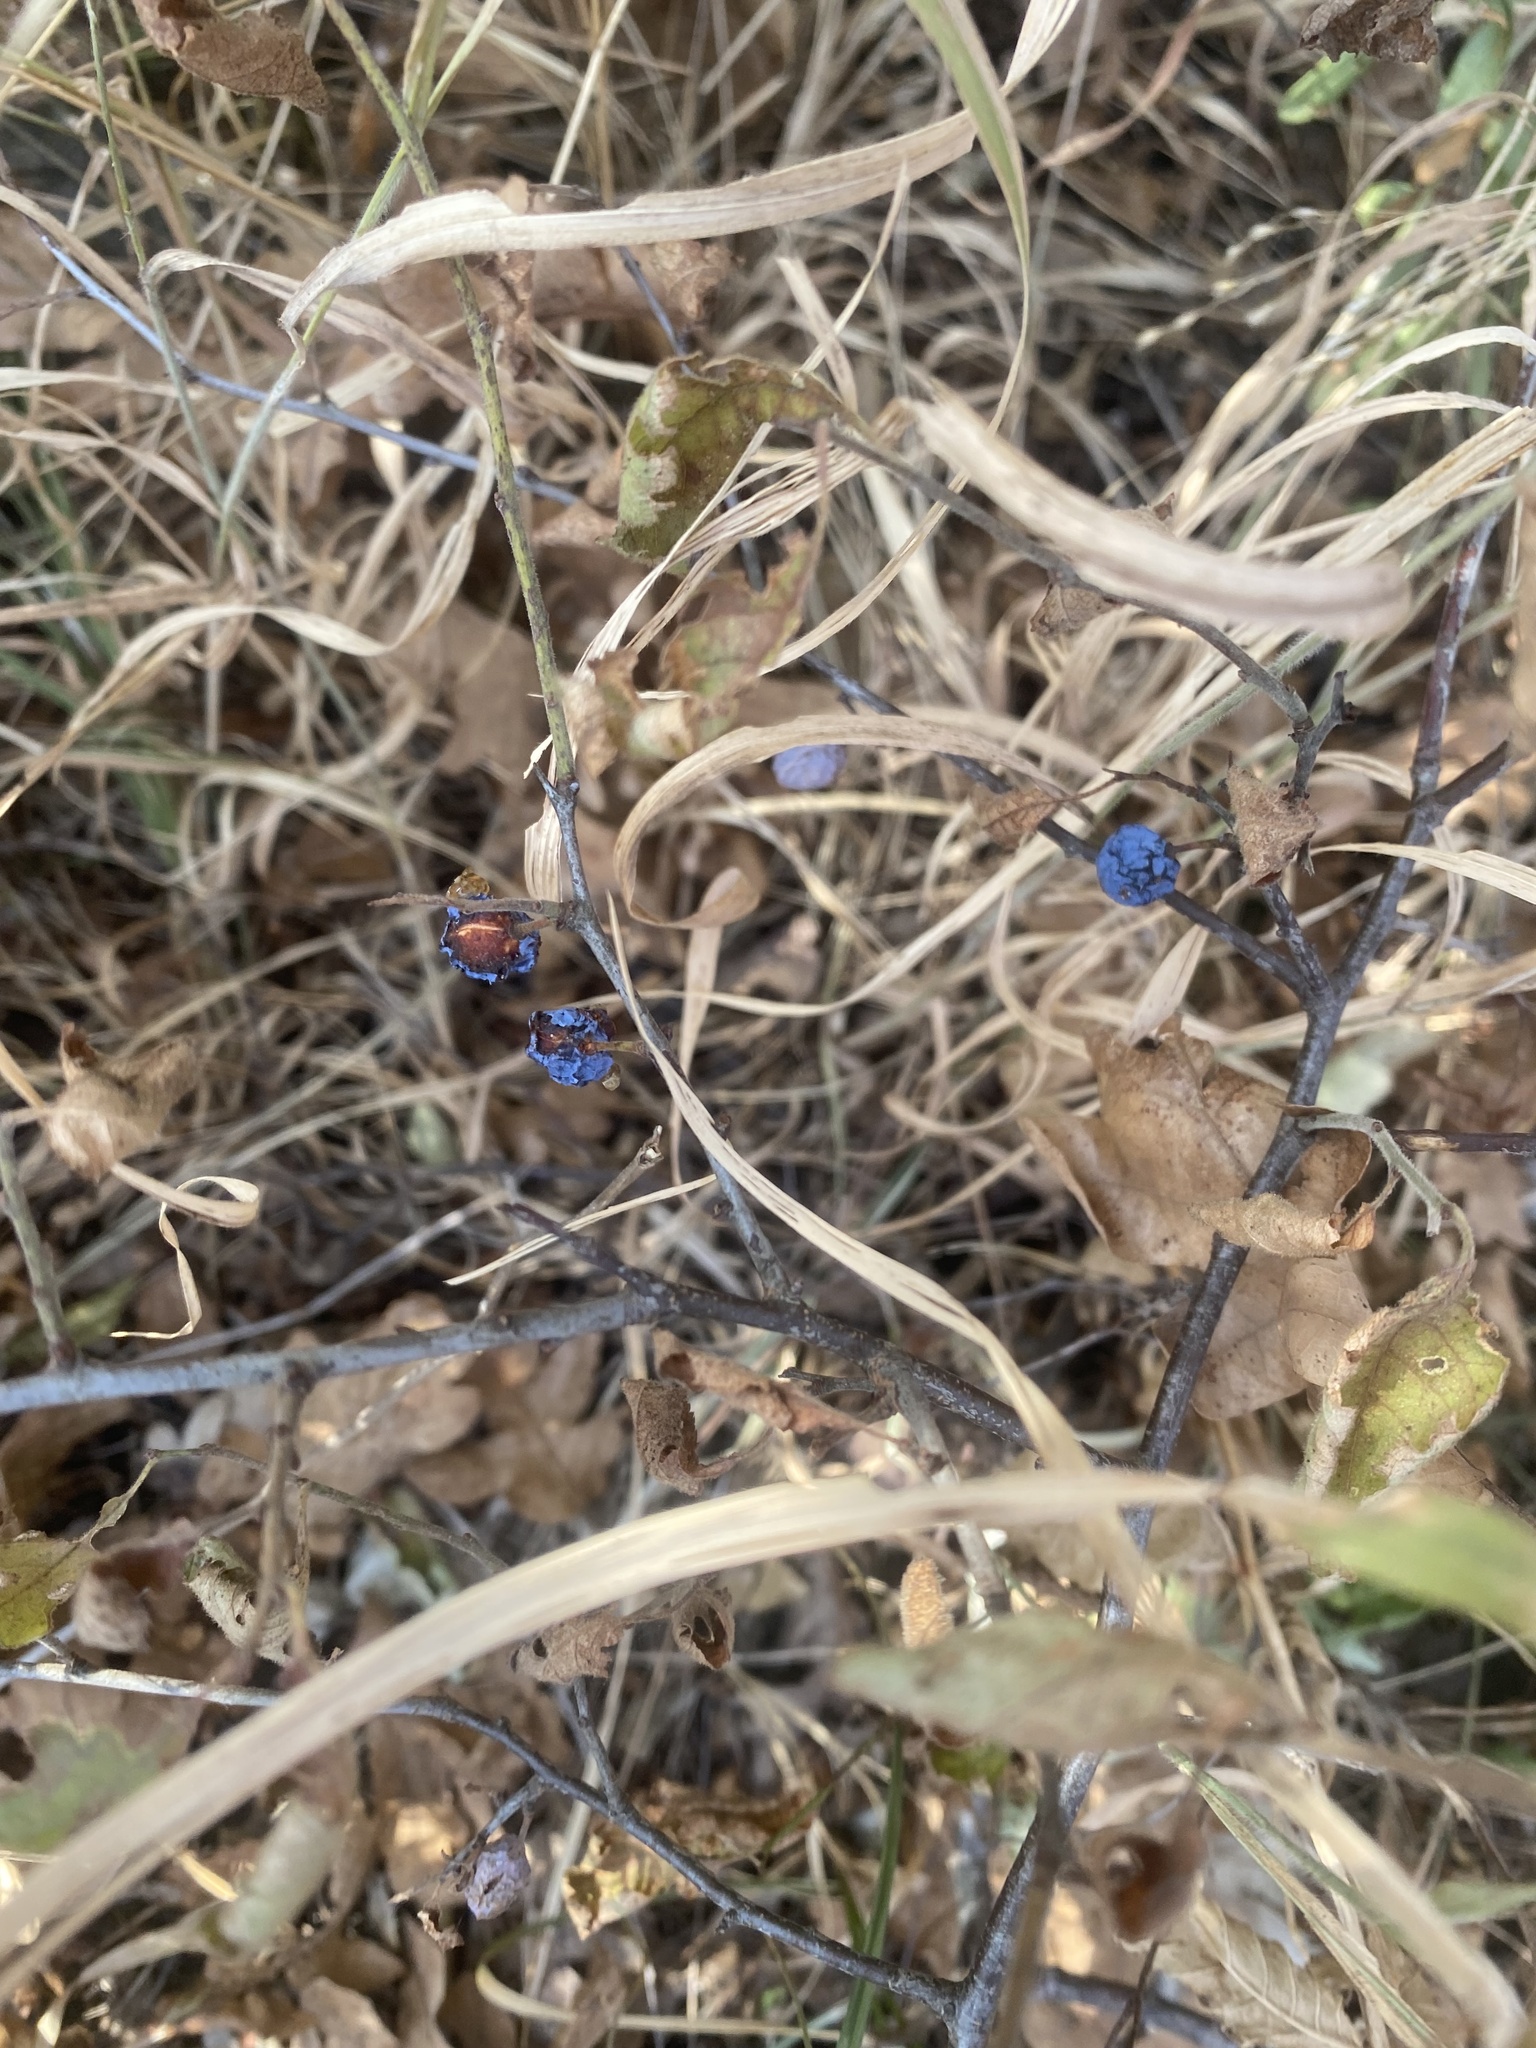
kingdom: Plantae
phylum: Tracheophyta
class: Magnoliopsida
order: Rosales
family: Rosaceae
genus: Prunus
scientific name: Prunus spinosa
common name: Blackthorn
